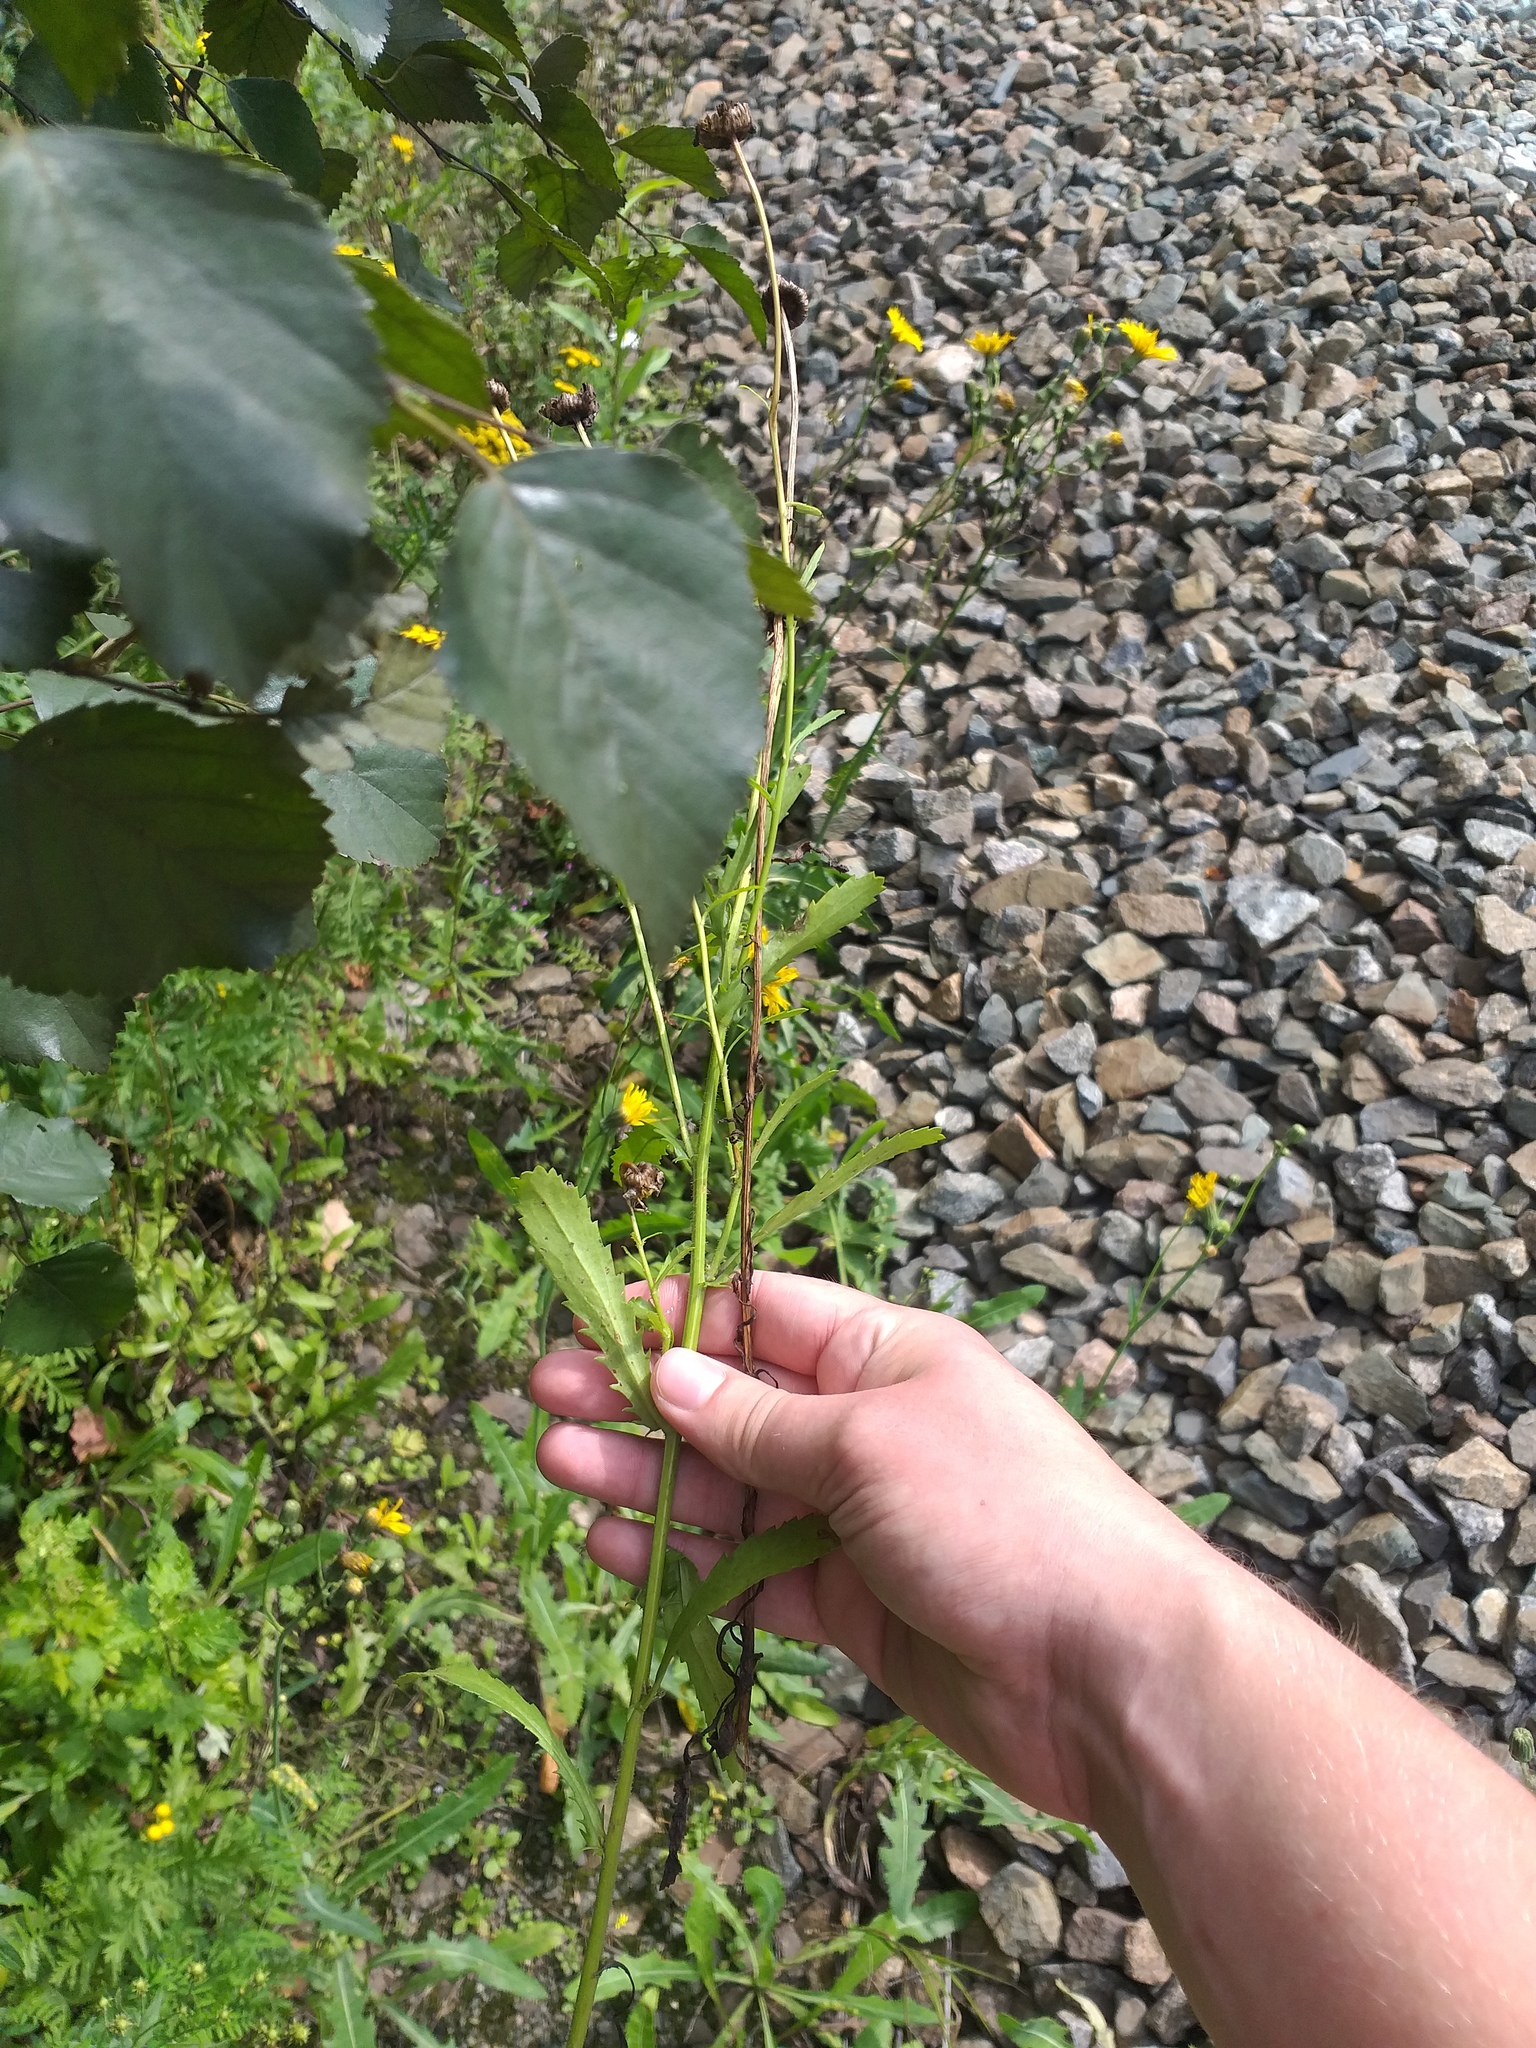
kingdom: Plantae
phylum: Tracheophyta
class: Magnoliopsida
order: Asterales
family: Asteraceae
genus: Leucanthemum
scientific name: Leucanthemum vulgare
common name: Oxeye daisy
